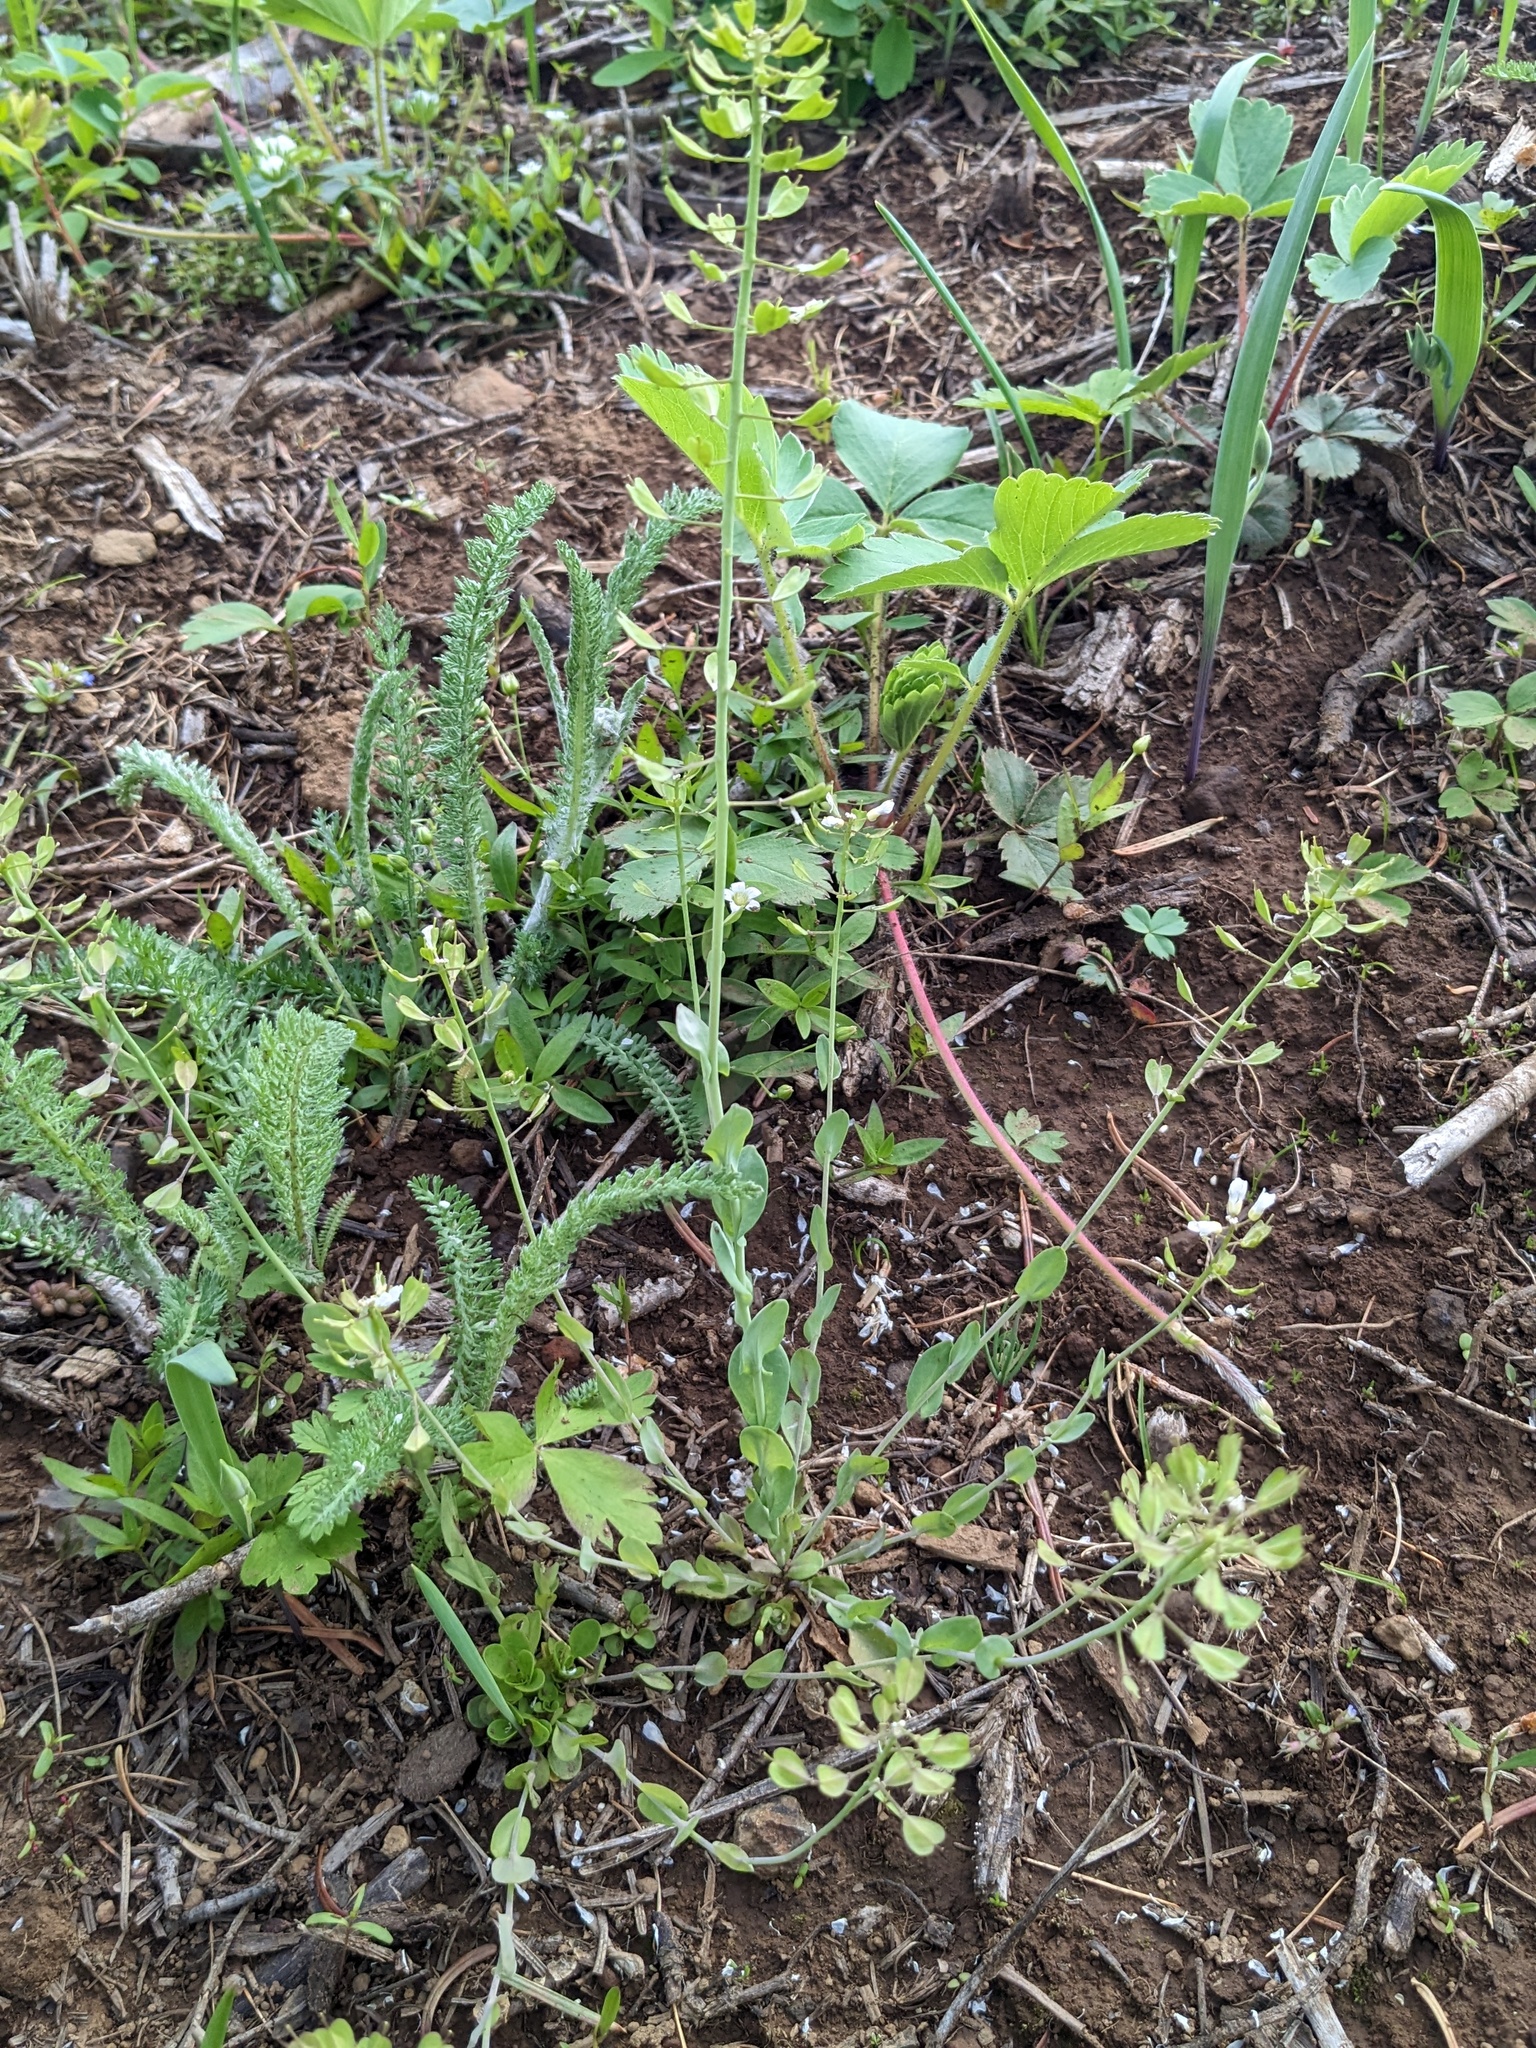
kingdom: Plantae
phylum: Tracheophyta
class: Magnoliopsida
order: Brassicales
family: Brassicaceae
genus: Noccaea
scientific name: Noccaea fendleri
